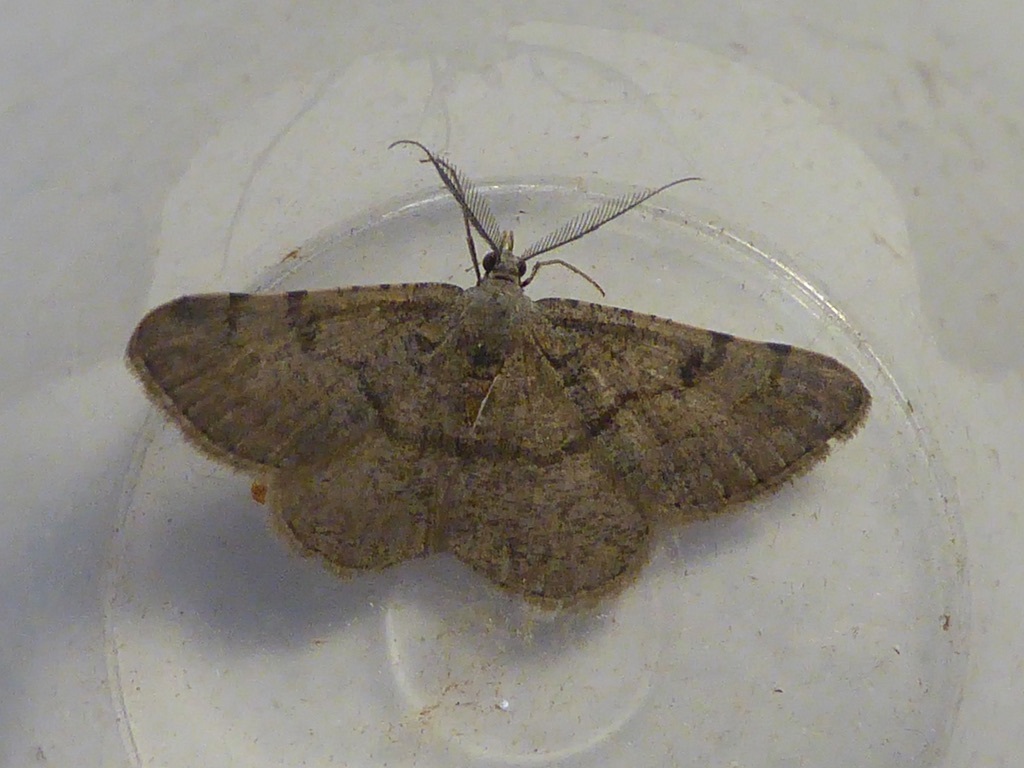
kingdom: Animalia
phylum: Arthropoda
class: Insecta
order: Lepidoptera
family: Geometridae
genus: Acanthovalva
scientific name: Acanthovalva inconspicuaria
